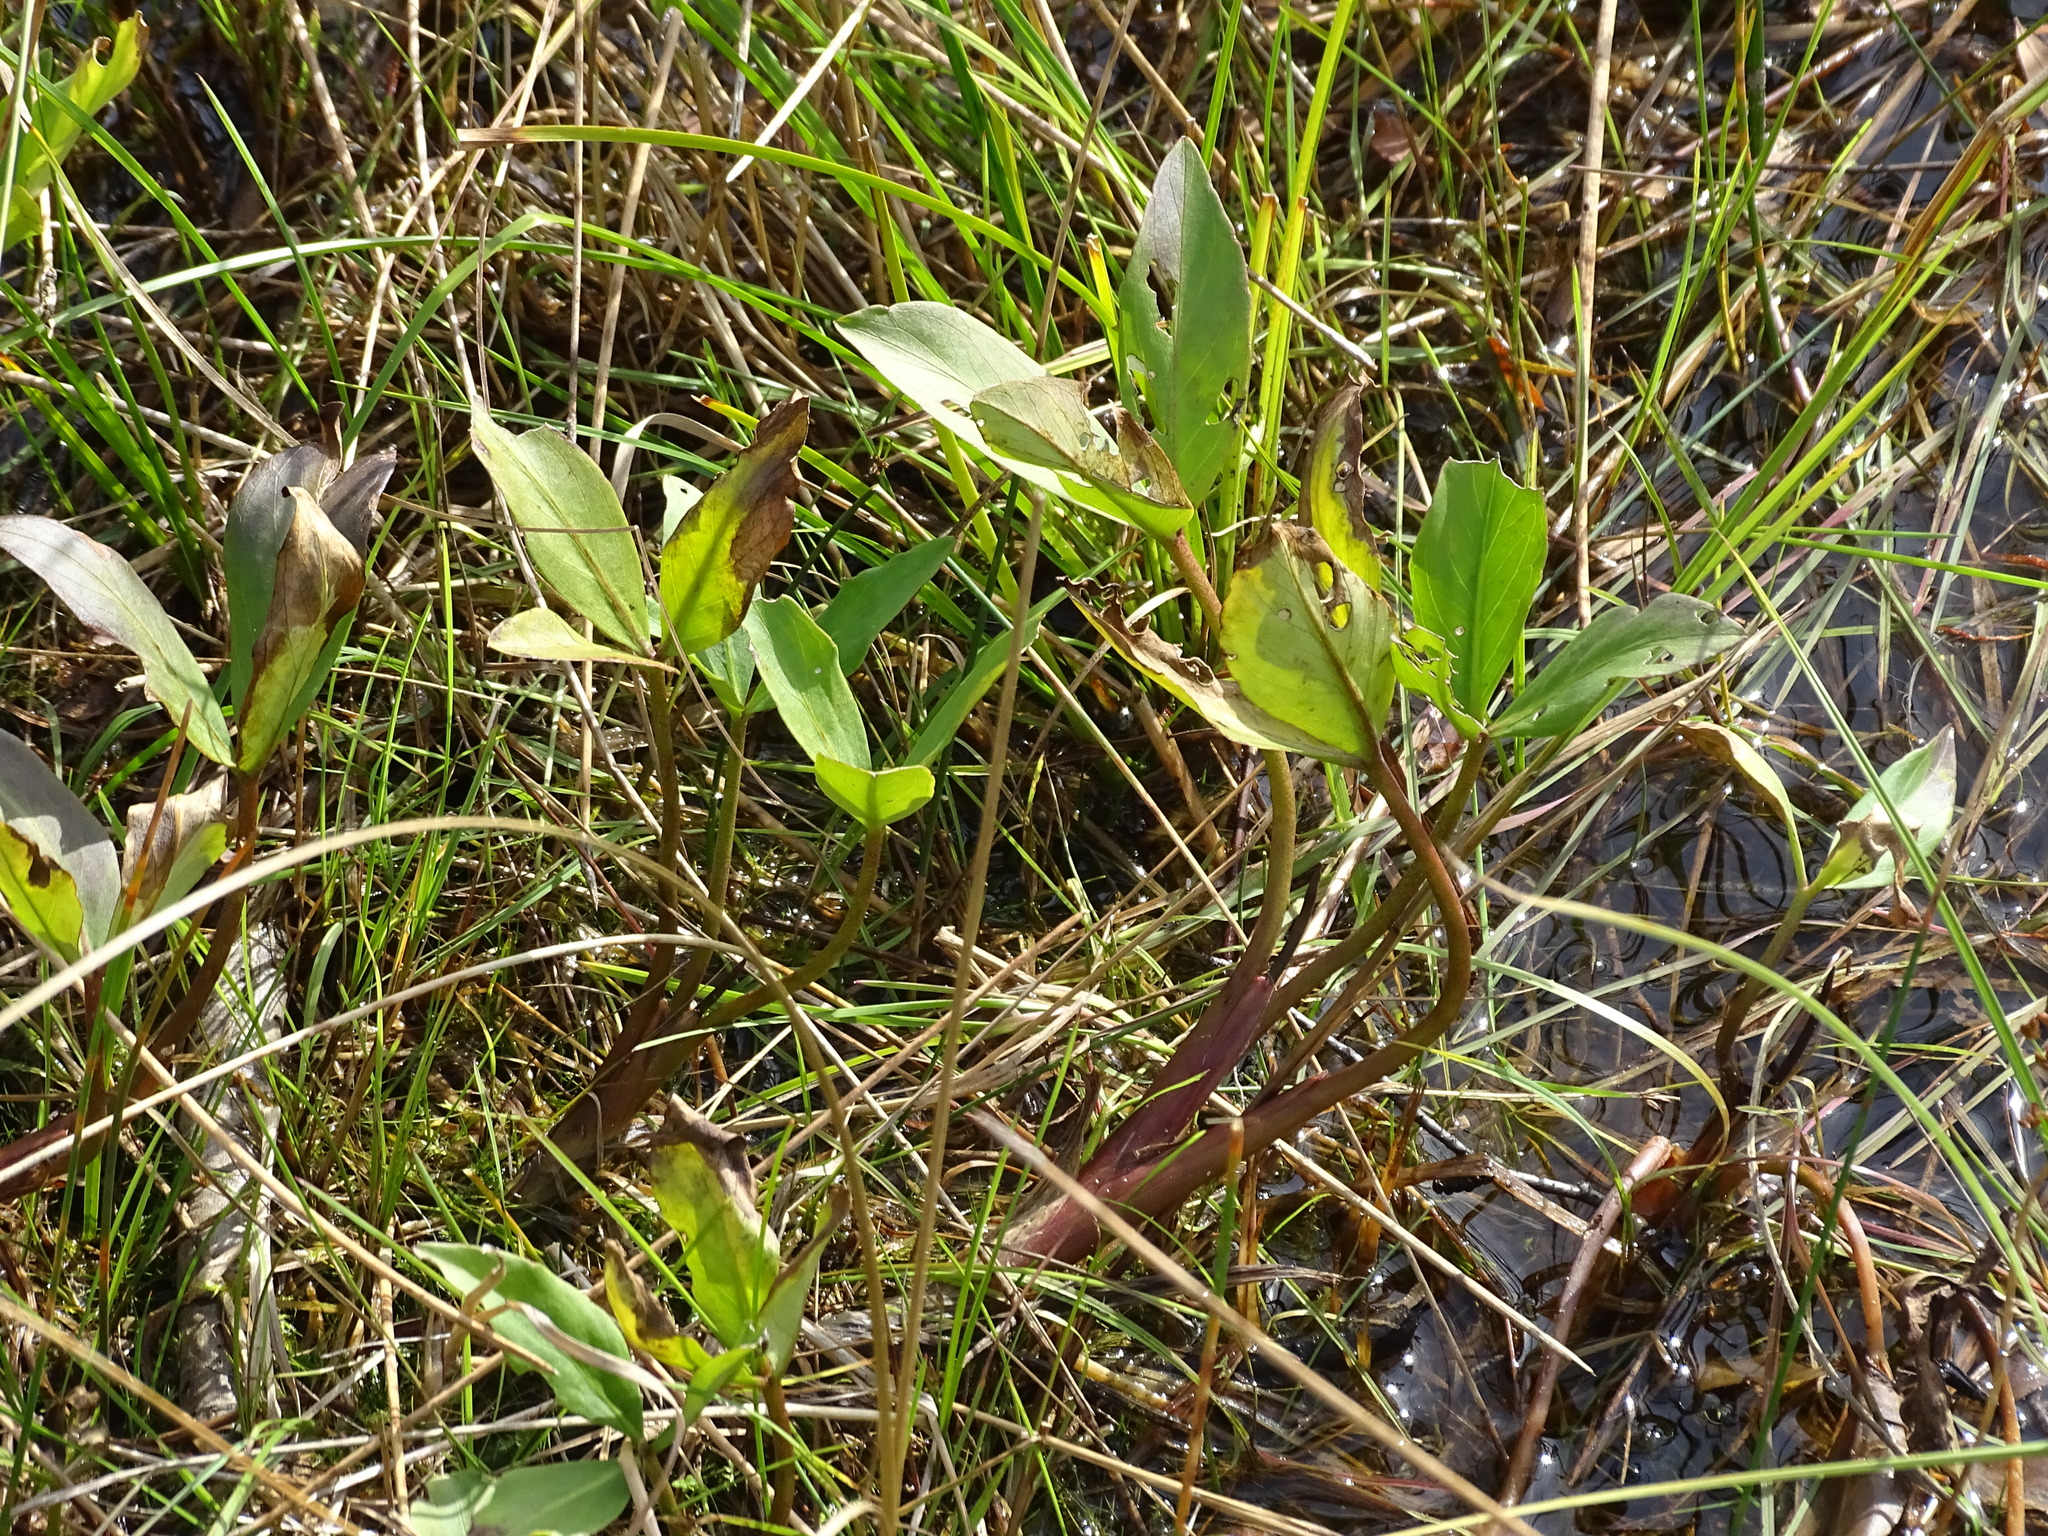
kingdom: Plantae
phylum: Tracheophyta
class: Magnoliopsida
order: Asterales
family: Menyanthaceae
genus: Menyanthes
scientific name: Menyanthes trifoliata
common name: Bogbean
